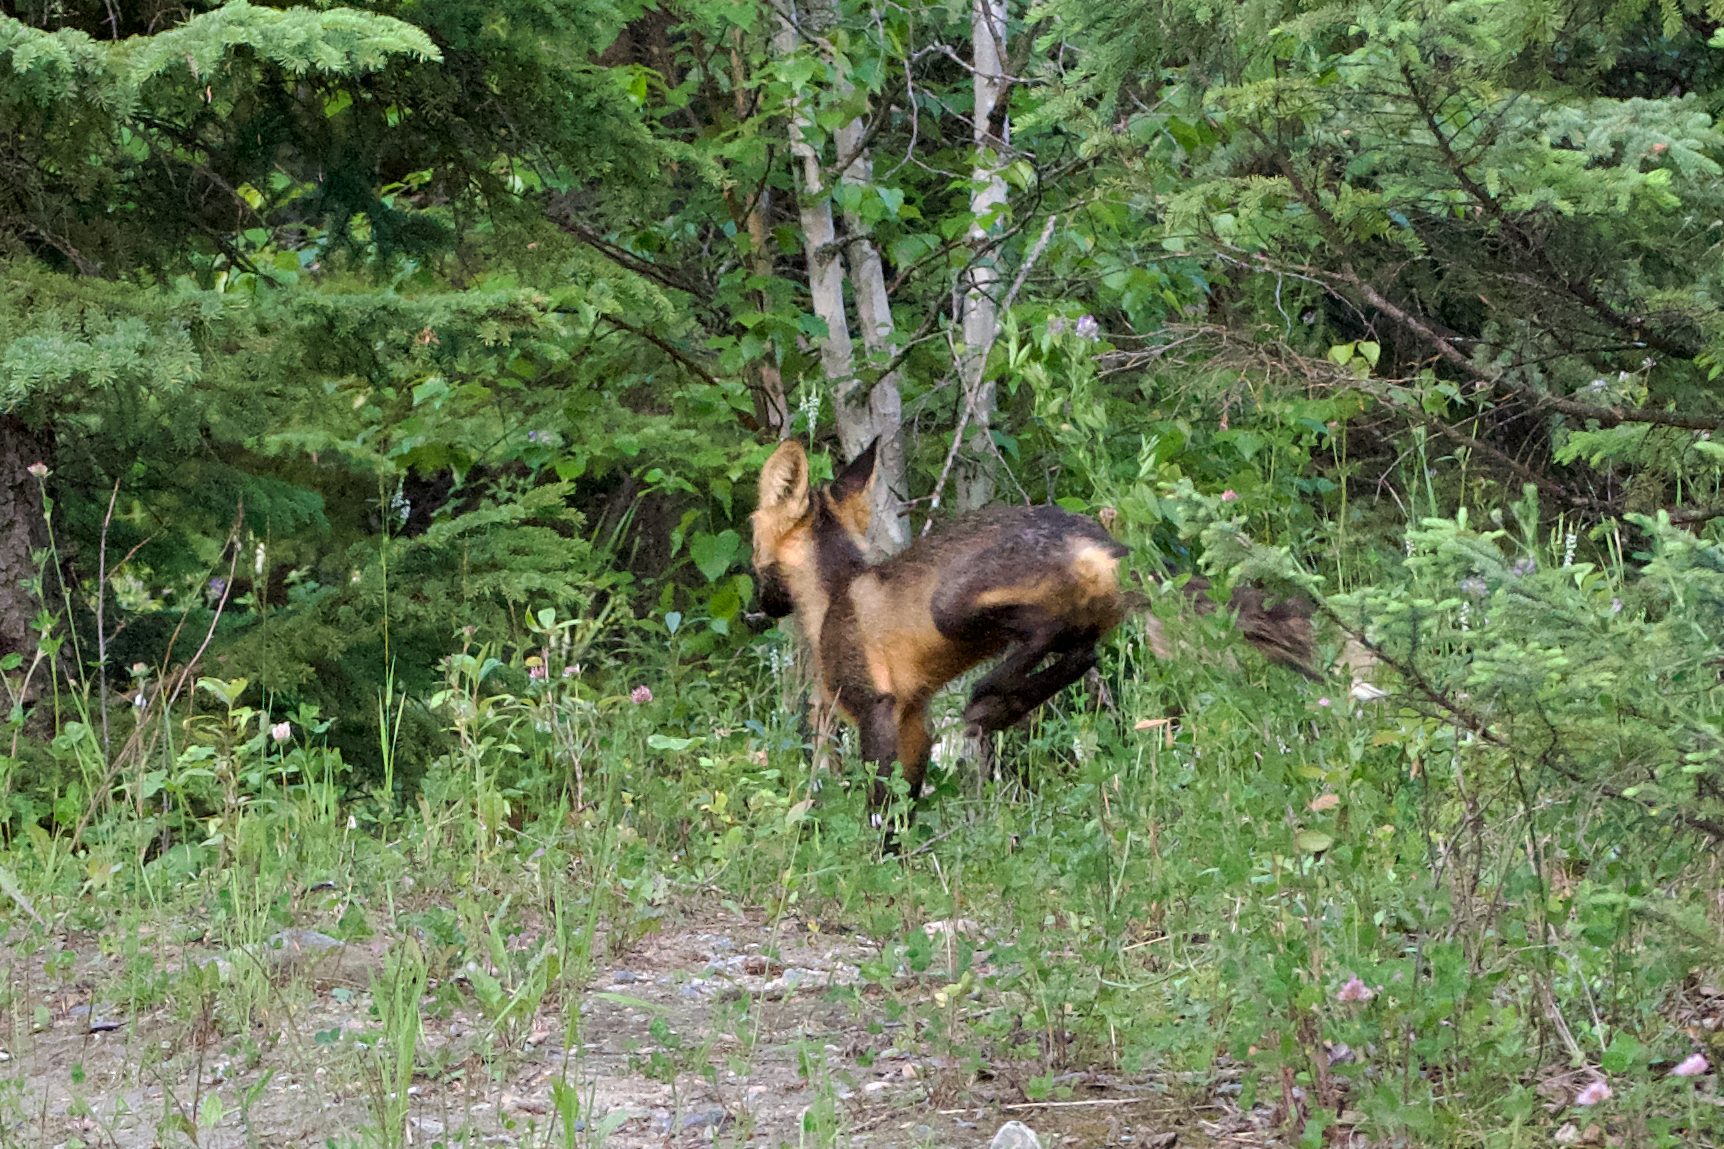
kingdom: Animalia
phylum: Chordata
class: Mammalia
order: Carnivora
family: Canidae
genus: Vulpes
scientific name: Vulpes vulpes
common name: Red fox
